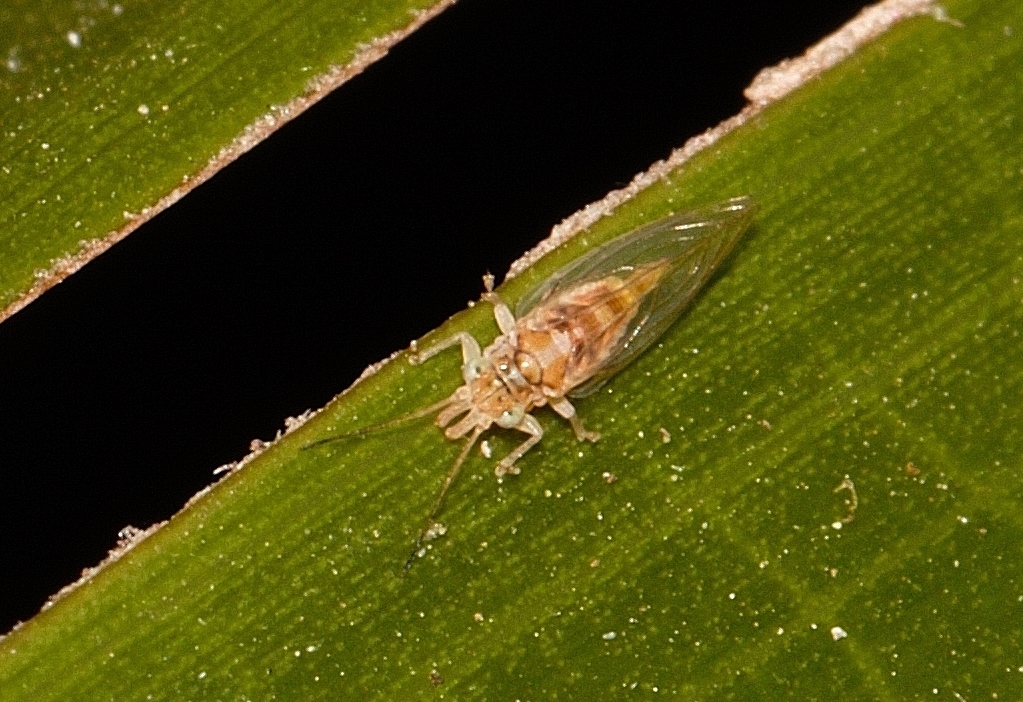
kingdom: Animalia
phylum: Arthropoda
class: Insecta
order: Hemiptera
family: Aphalaridae
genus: Glycaspis
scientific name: Glycaspis brimblecombei
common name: Red gum lerp psyllid
